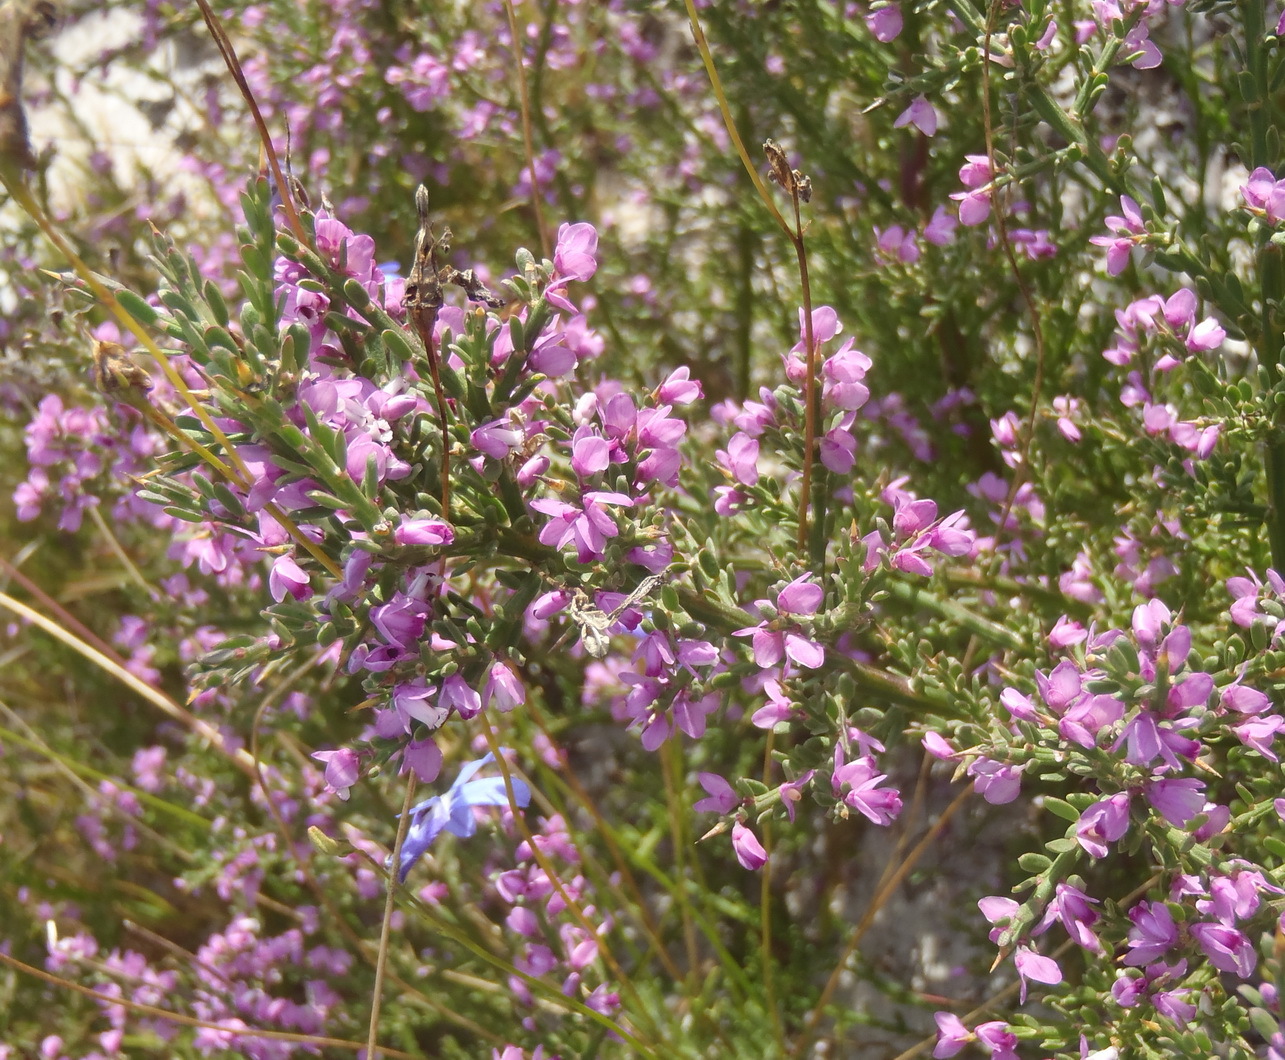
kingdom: Plantae
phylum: Tracheophyta
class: Magnoliopsida
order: Fabales
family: Polygalaceae
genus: Muraltia
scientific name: Muraltia spinosa
